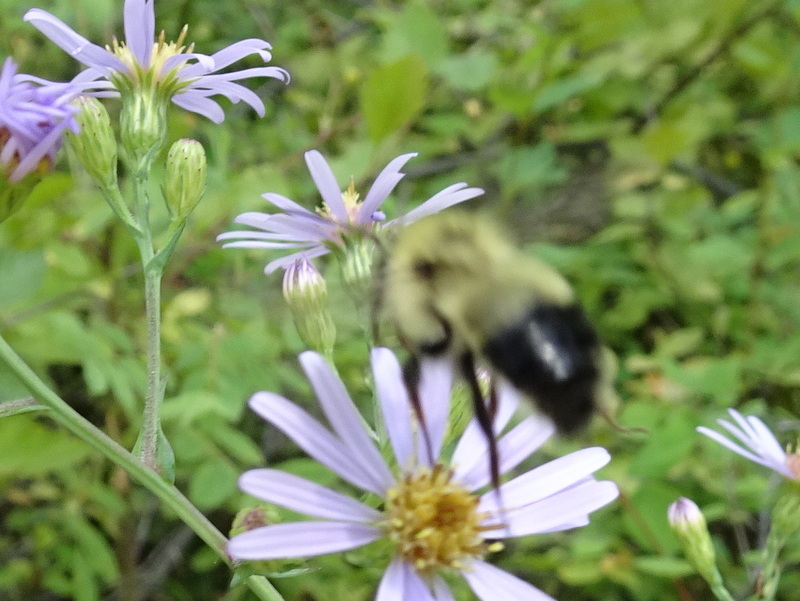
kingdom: Animalia
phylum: Arthropoda
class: Insecta
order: Hymenoptera
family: Apidae
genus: Bombus
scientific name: Bombus vagans
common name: Half-black bumble bee
